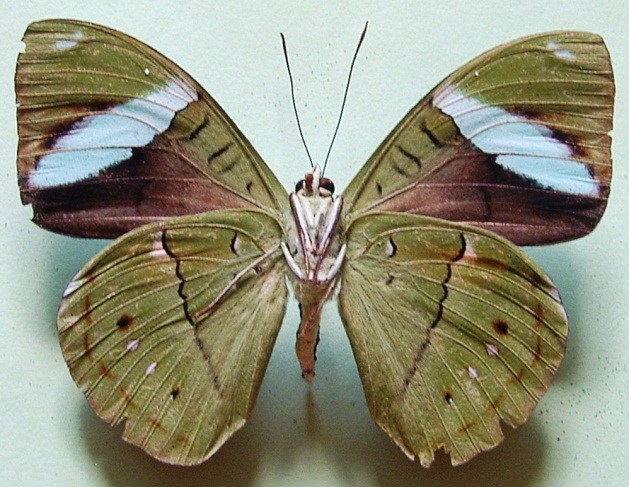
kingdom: Animalia
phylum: Arthropoda
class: Insecta
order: Lepidoptera
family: Nymphalidae
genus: Nessaea
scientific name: Nessaea aglaura
